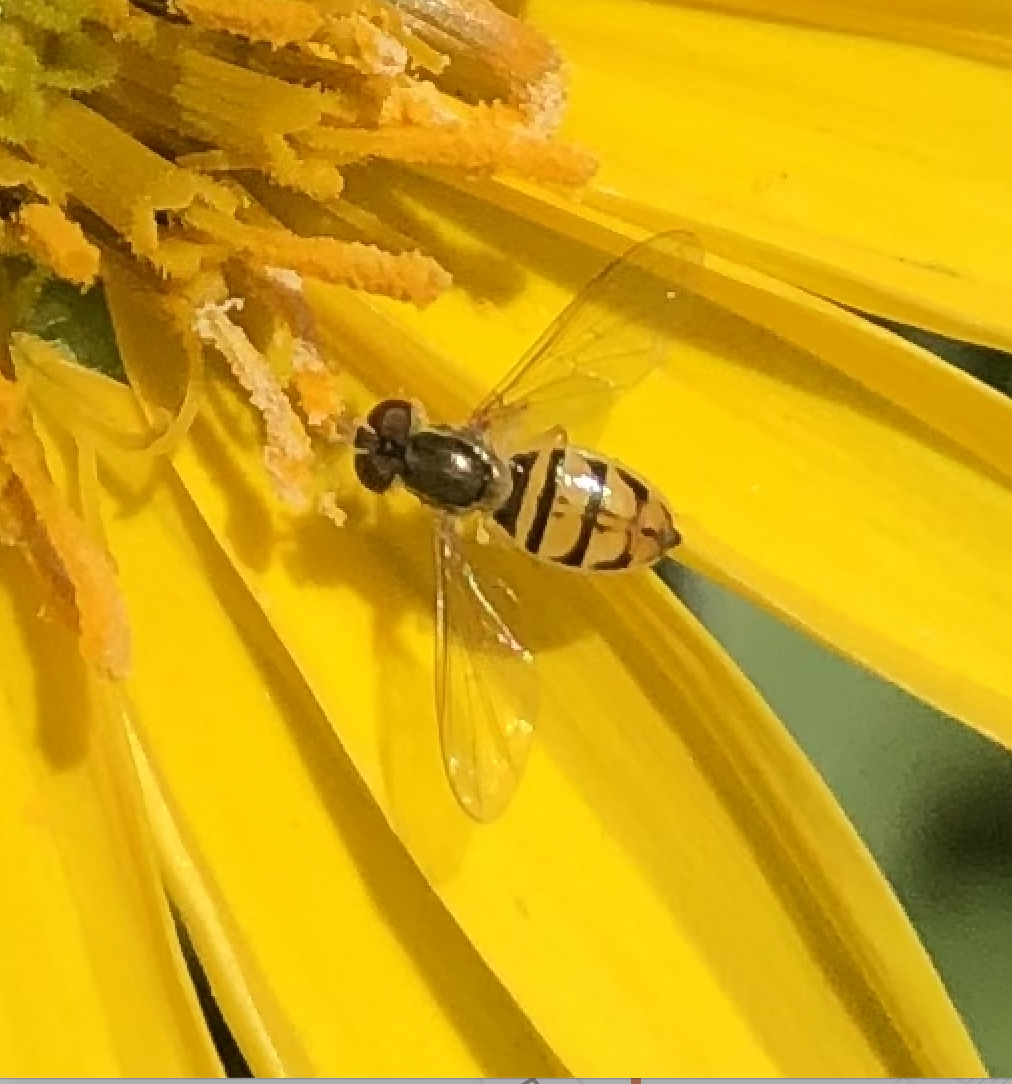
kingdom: Animalia
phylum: Arthropoda
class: Insecta
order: Diptera
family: Syrphidae
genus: Toxomerus
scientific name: Toxomerus marginatus
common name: Syrphid fly
